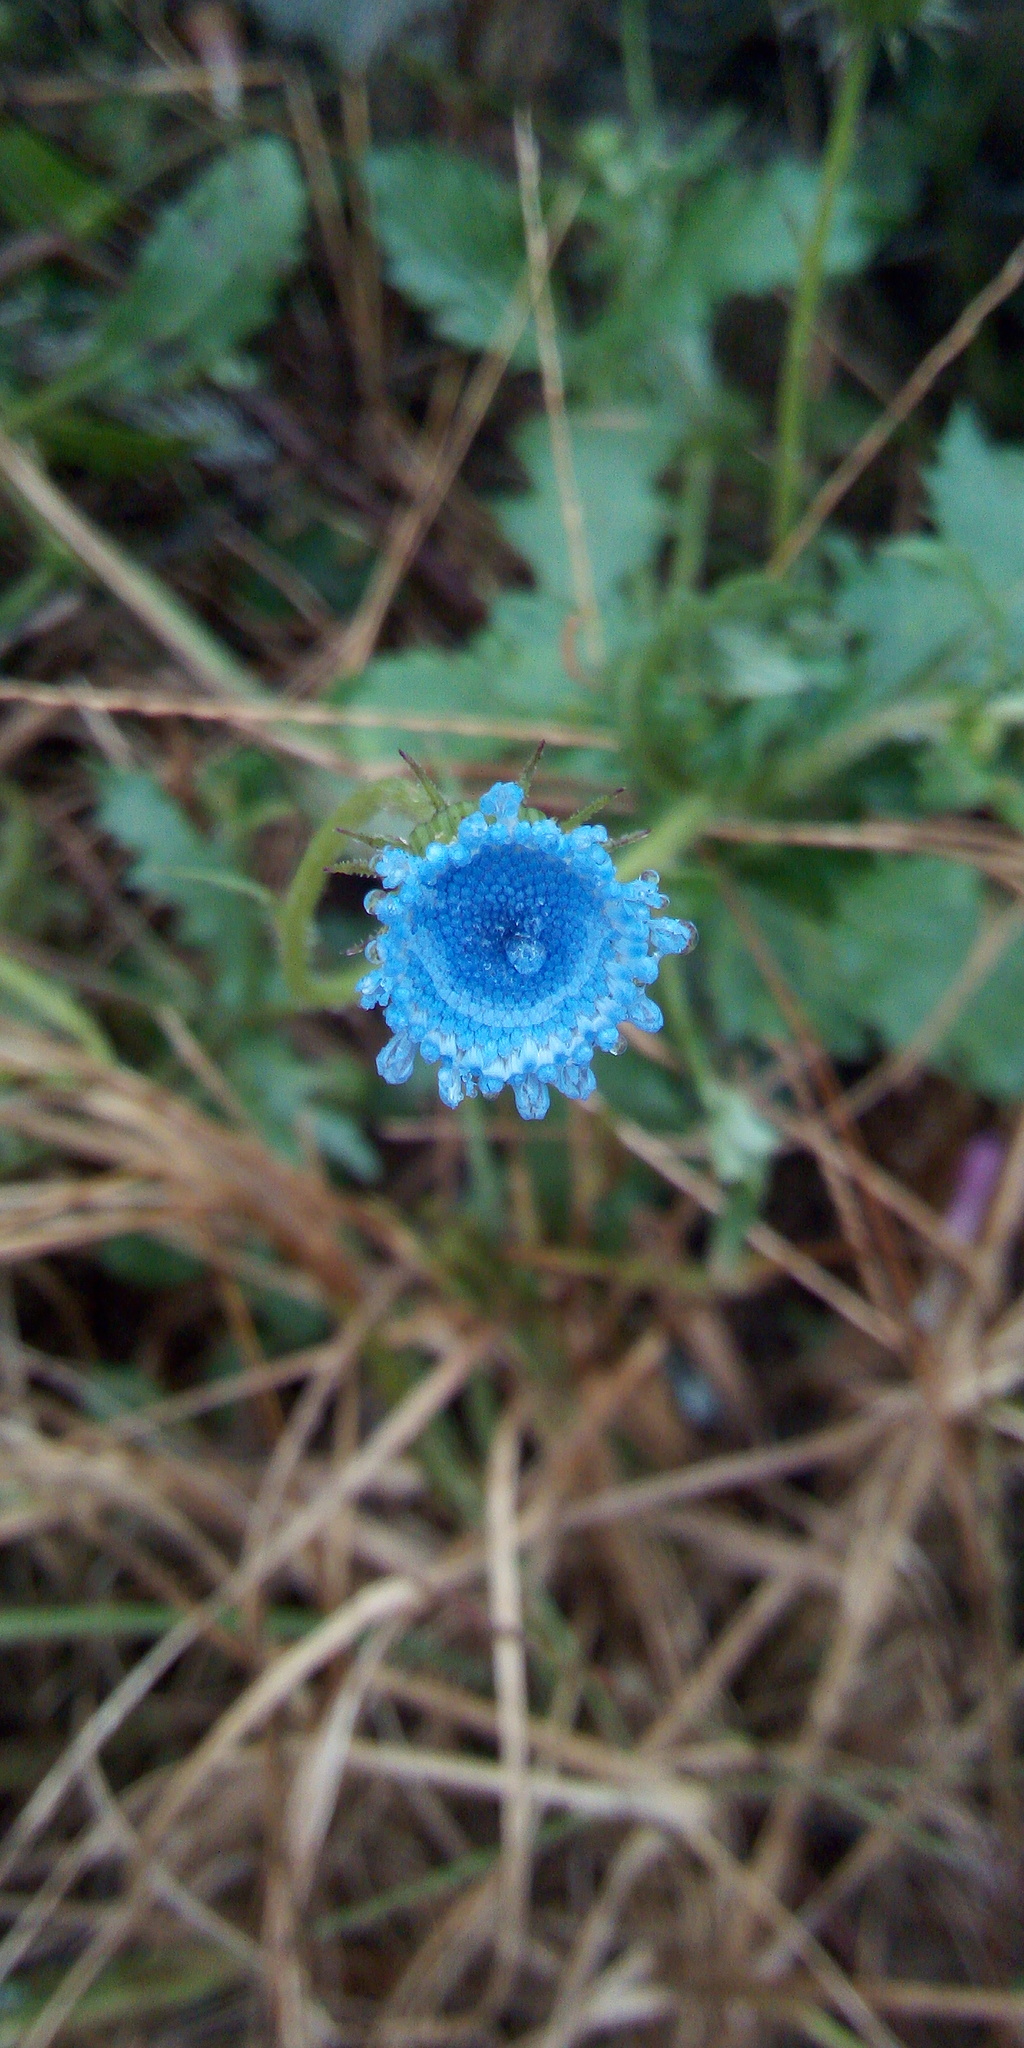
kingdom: Plantae
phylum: Tracheophyta
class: Magnoliopsida
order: Asterales
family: Asteraceae
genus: Crassocephalum
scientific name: Crassocephalum rubens
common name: Yoruban bologi
